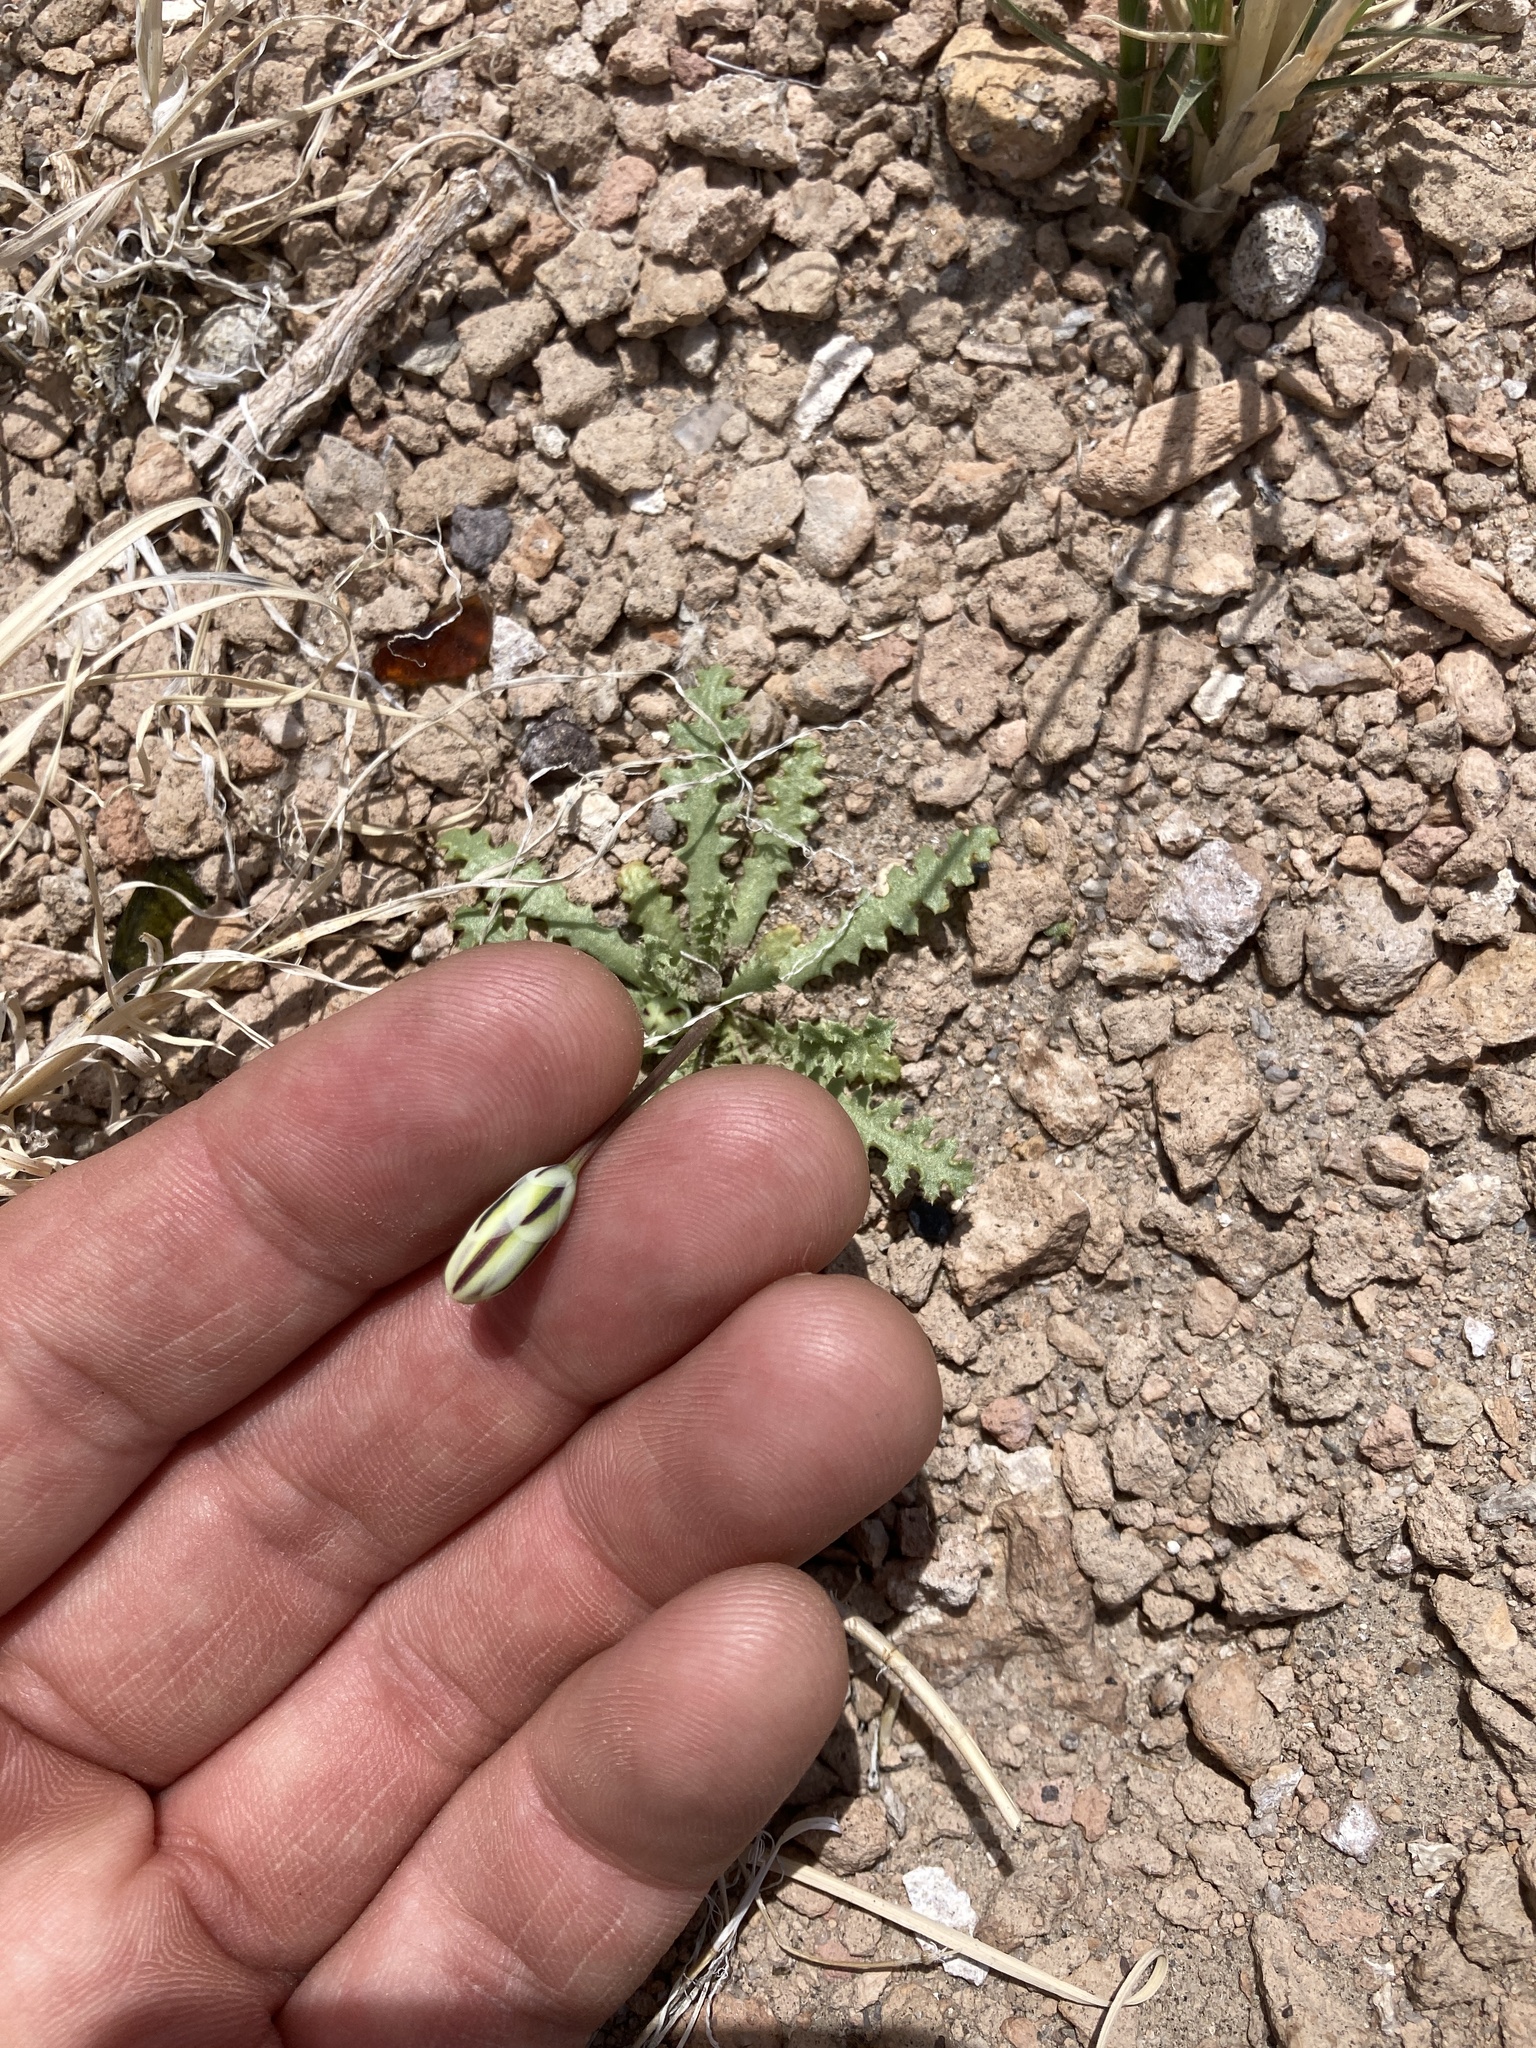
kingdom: Plantae
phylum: Tracheophyta
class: Magnoliopsida
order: Asterales
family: Asteraceae
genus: Anisocoma
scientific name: Anisocoma acaulis
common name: Scalebud
